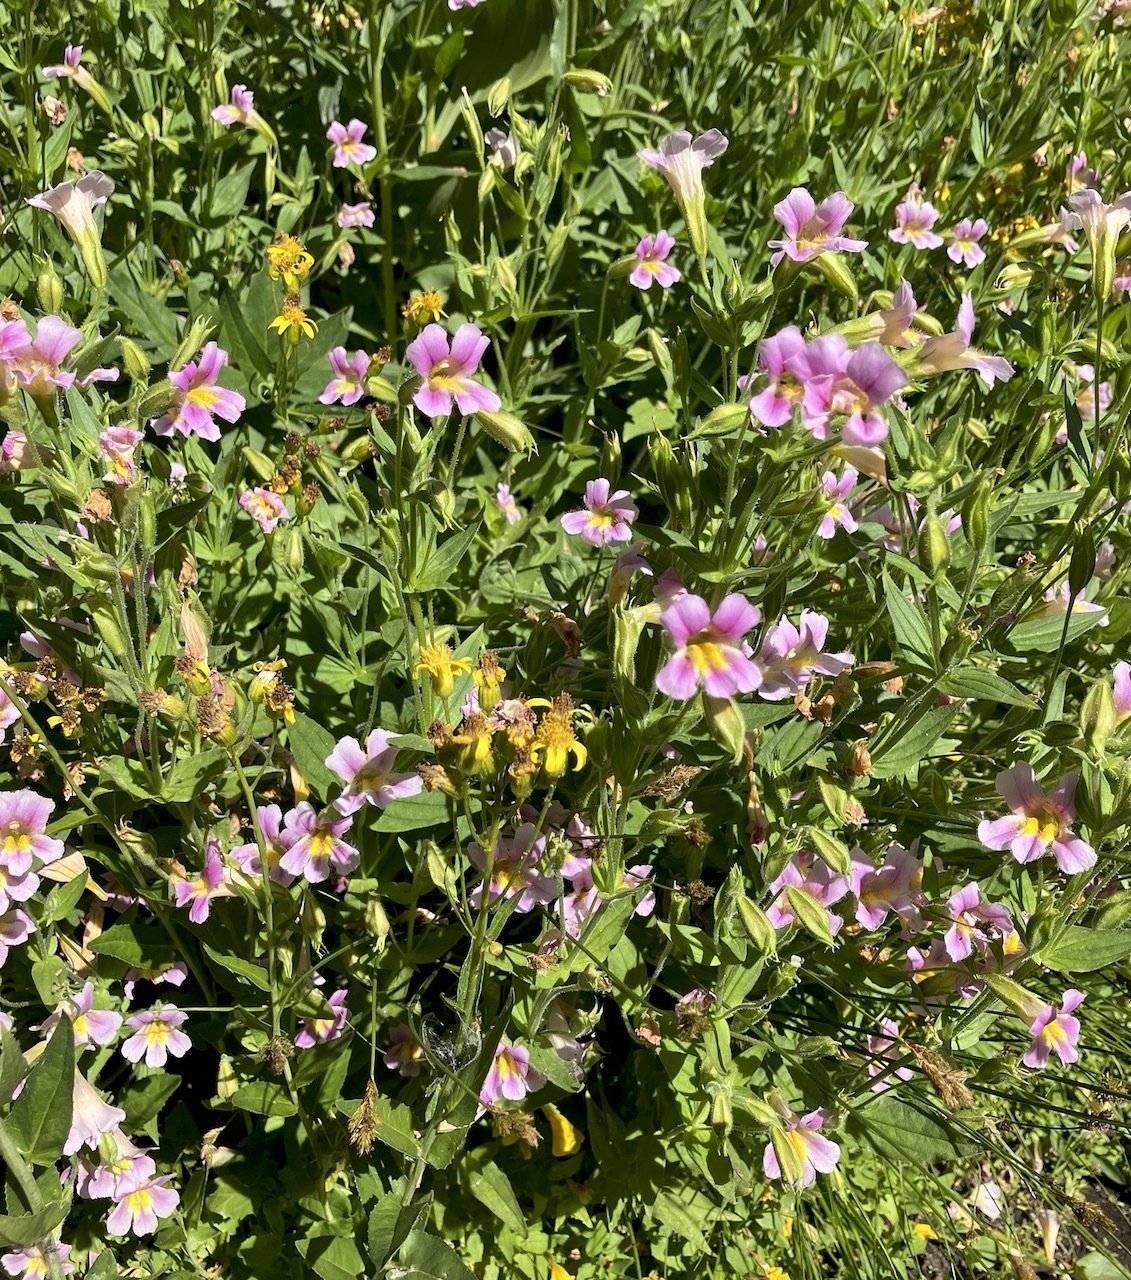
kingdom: Plantae
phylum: Tracheophyta
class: Magnoliopsida
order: Lamiales
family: Phrymaceae
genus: Erythranthe
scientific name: Erythranthe erubescens
